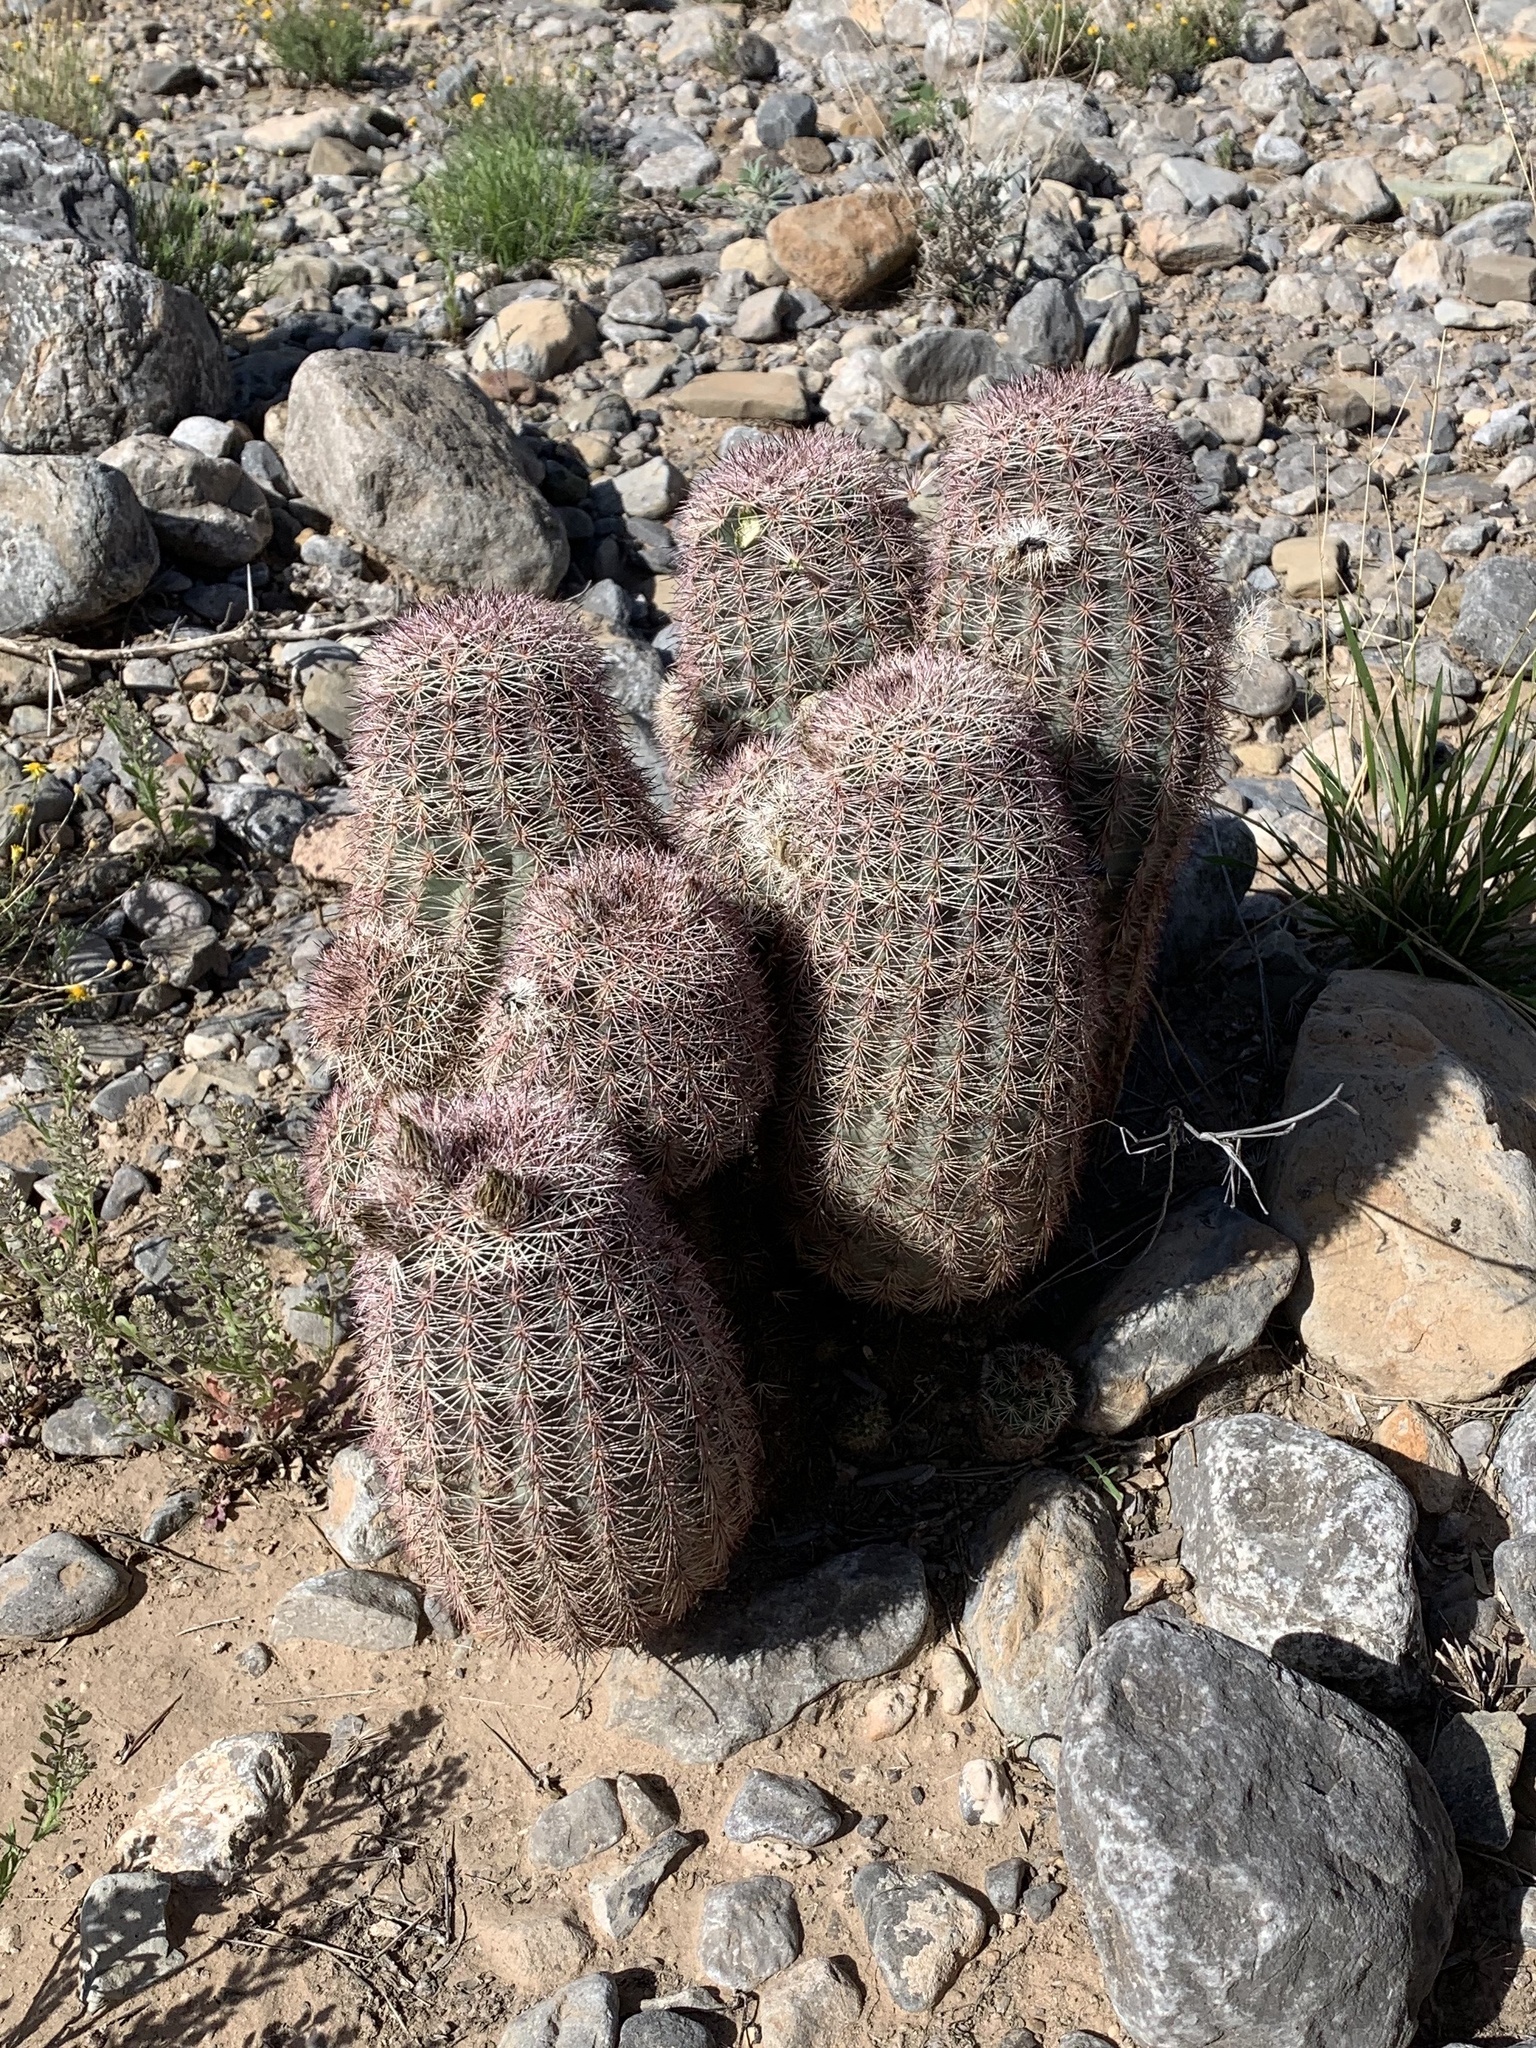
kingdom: Plantae
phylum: Tracheophyta
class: Magnoliopsida
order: Caryophyllales
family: Cactaceae
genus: Echinocereus
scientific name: Echinocereus dasyacanthus
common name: Spiny hedgehog cactus
